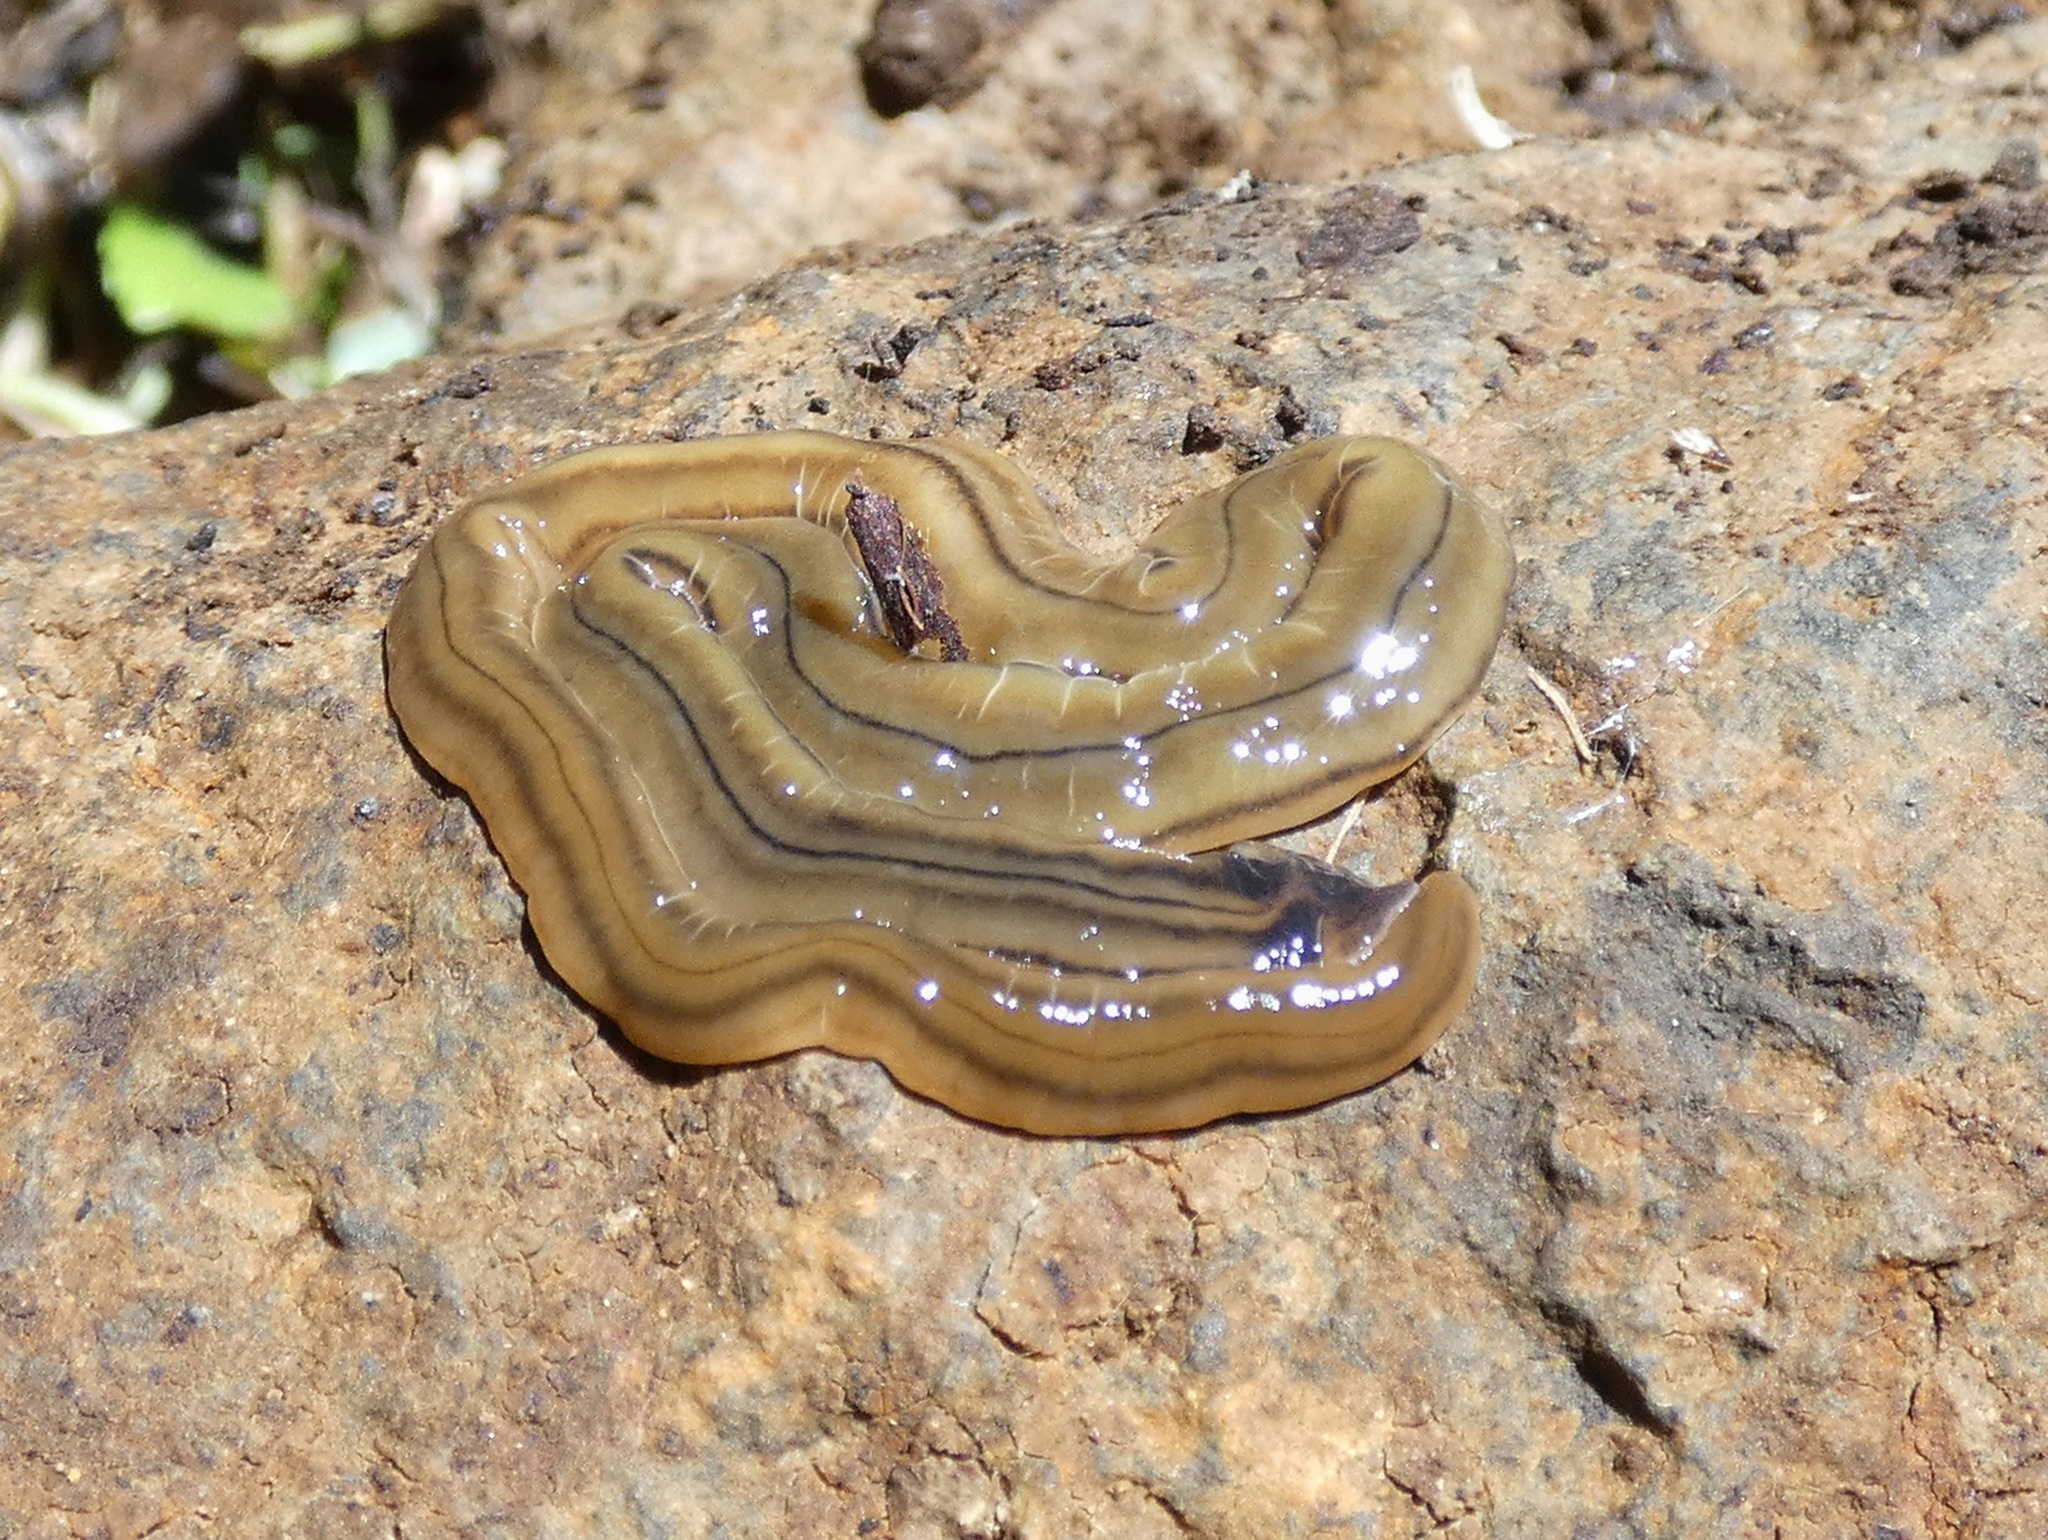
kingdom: Animalia
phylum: Platyhelminthes
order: Tricladida
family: Geoplanidae
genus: Bipalium
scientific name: Bipalium kewense
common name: Hammerhead flatworm
